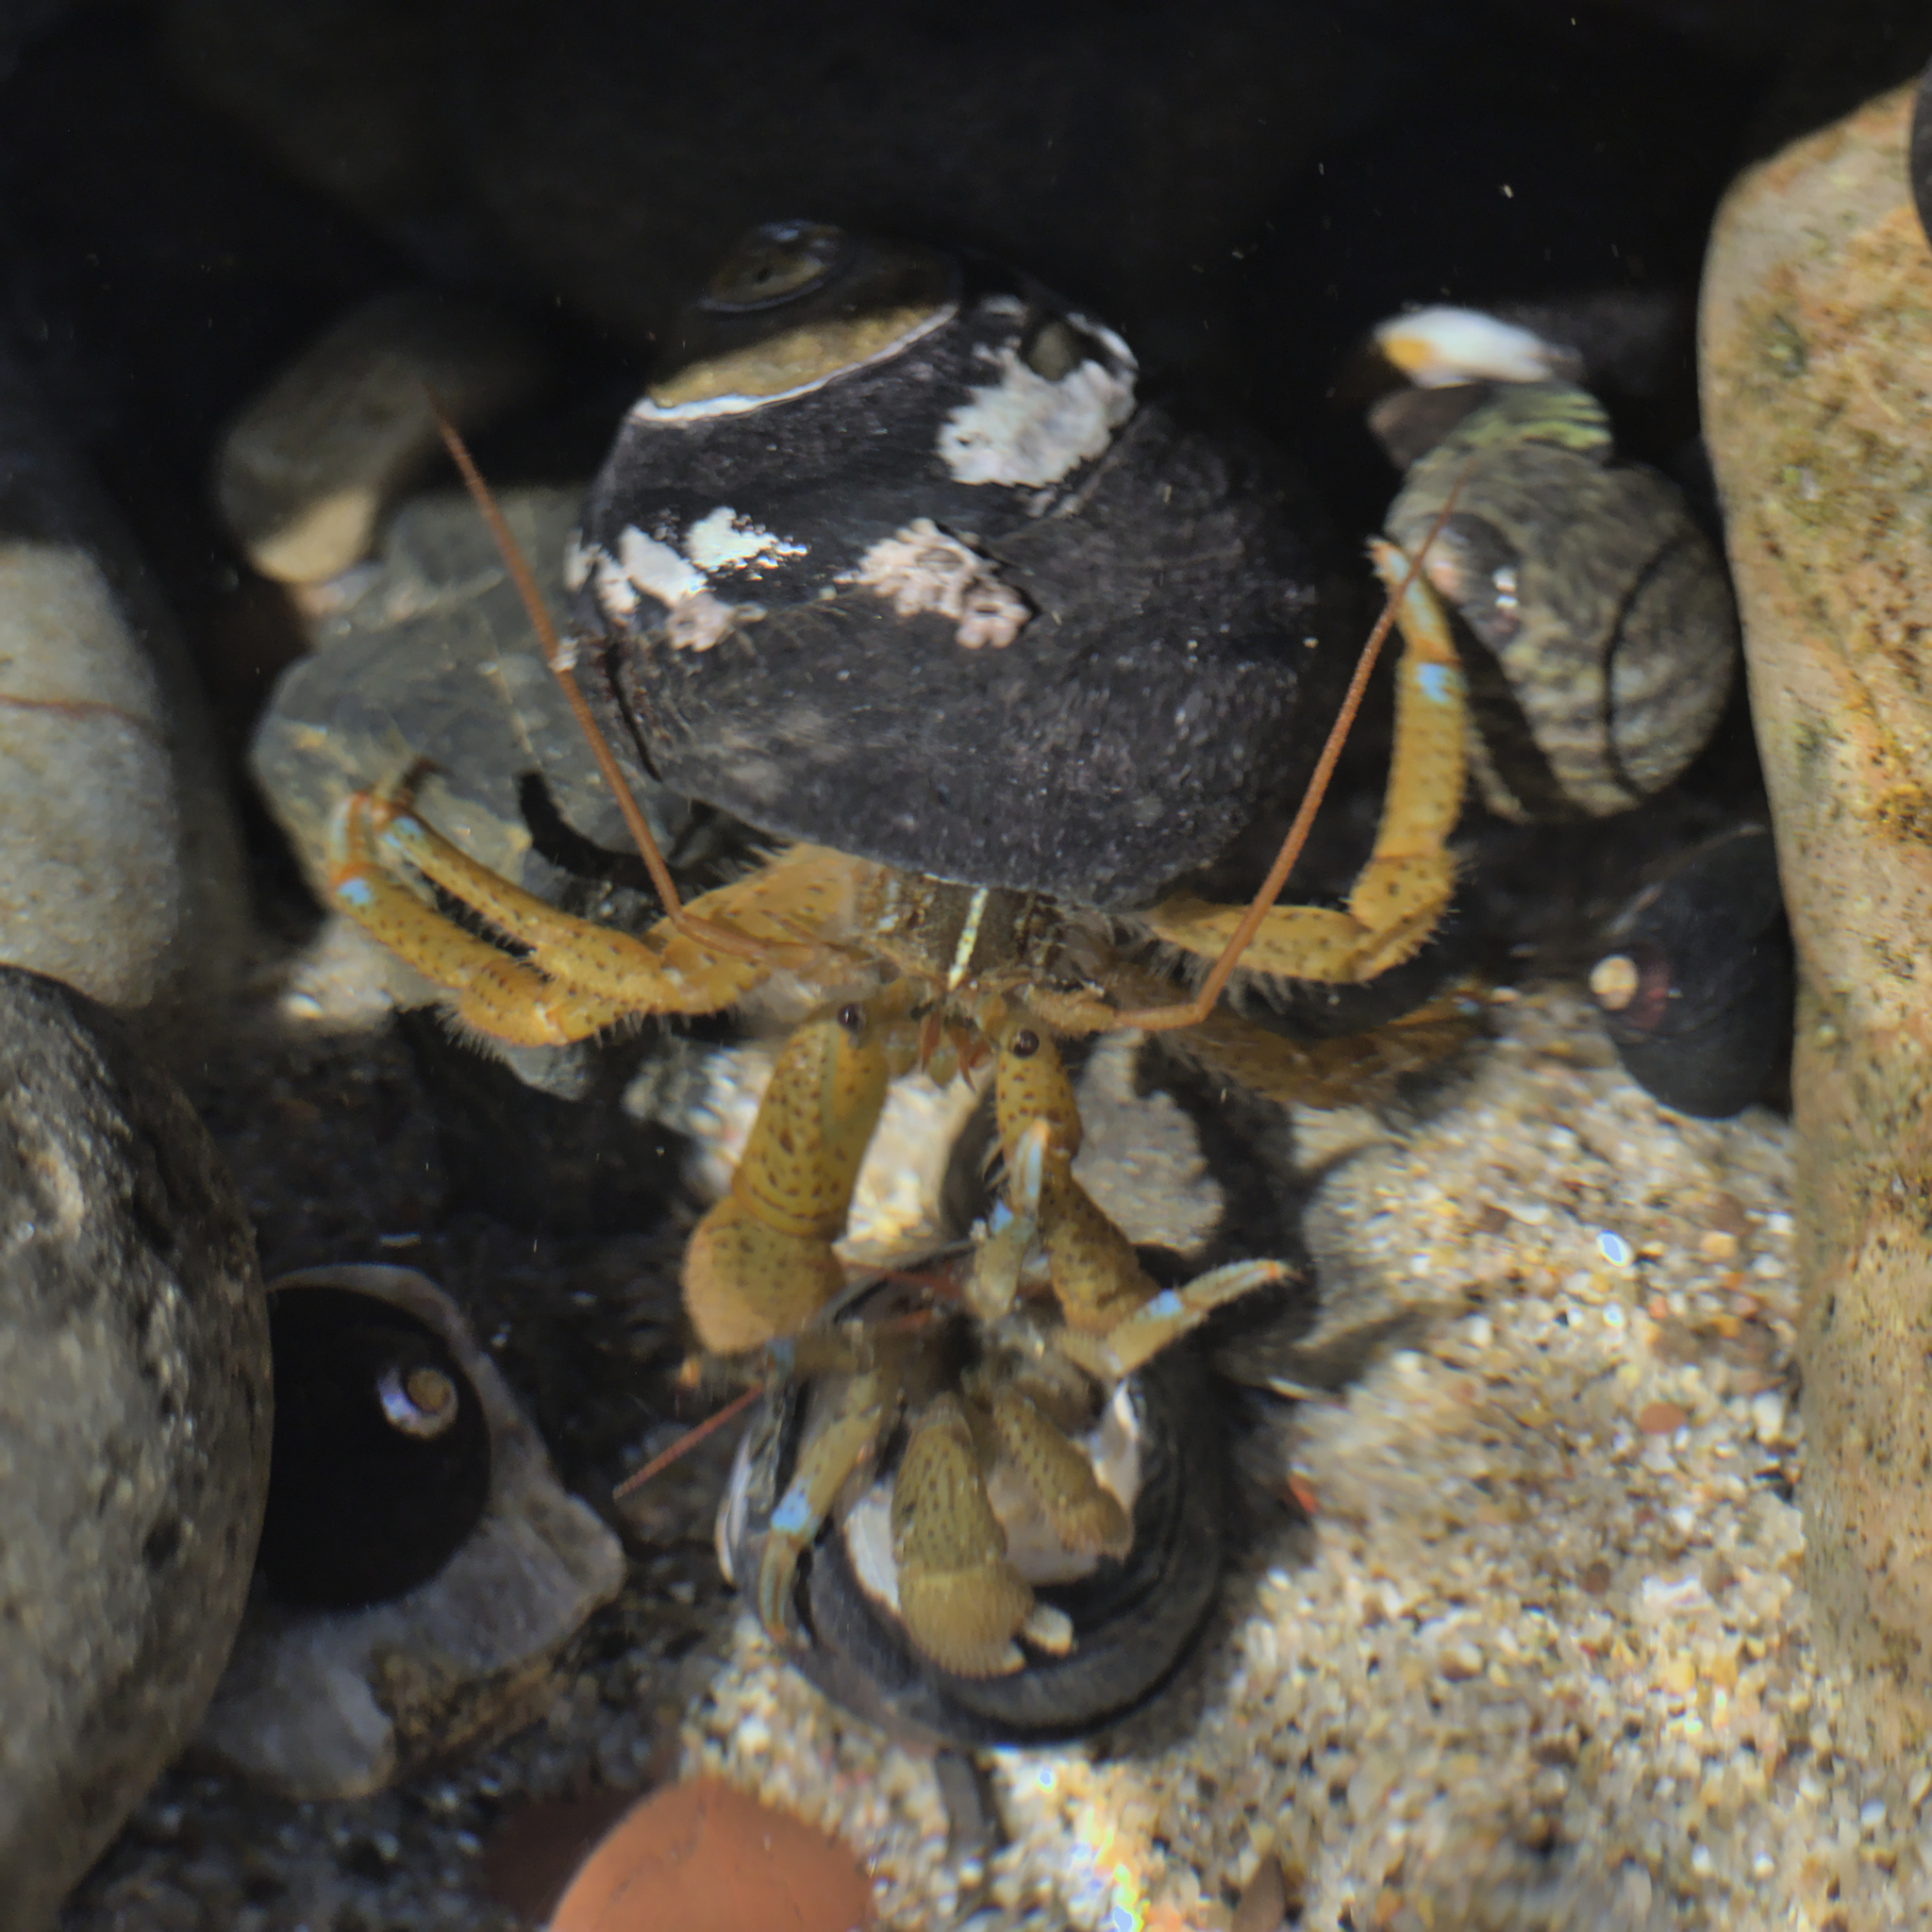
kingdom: Animalia
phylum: Arthropoda
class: Malacostraca
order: Decapoda
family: Paguridae
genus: Pagurus
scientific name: Pagurus samuelis
